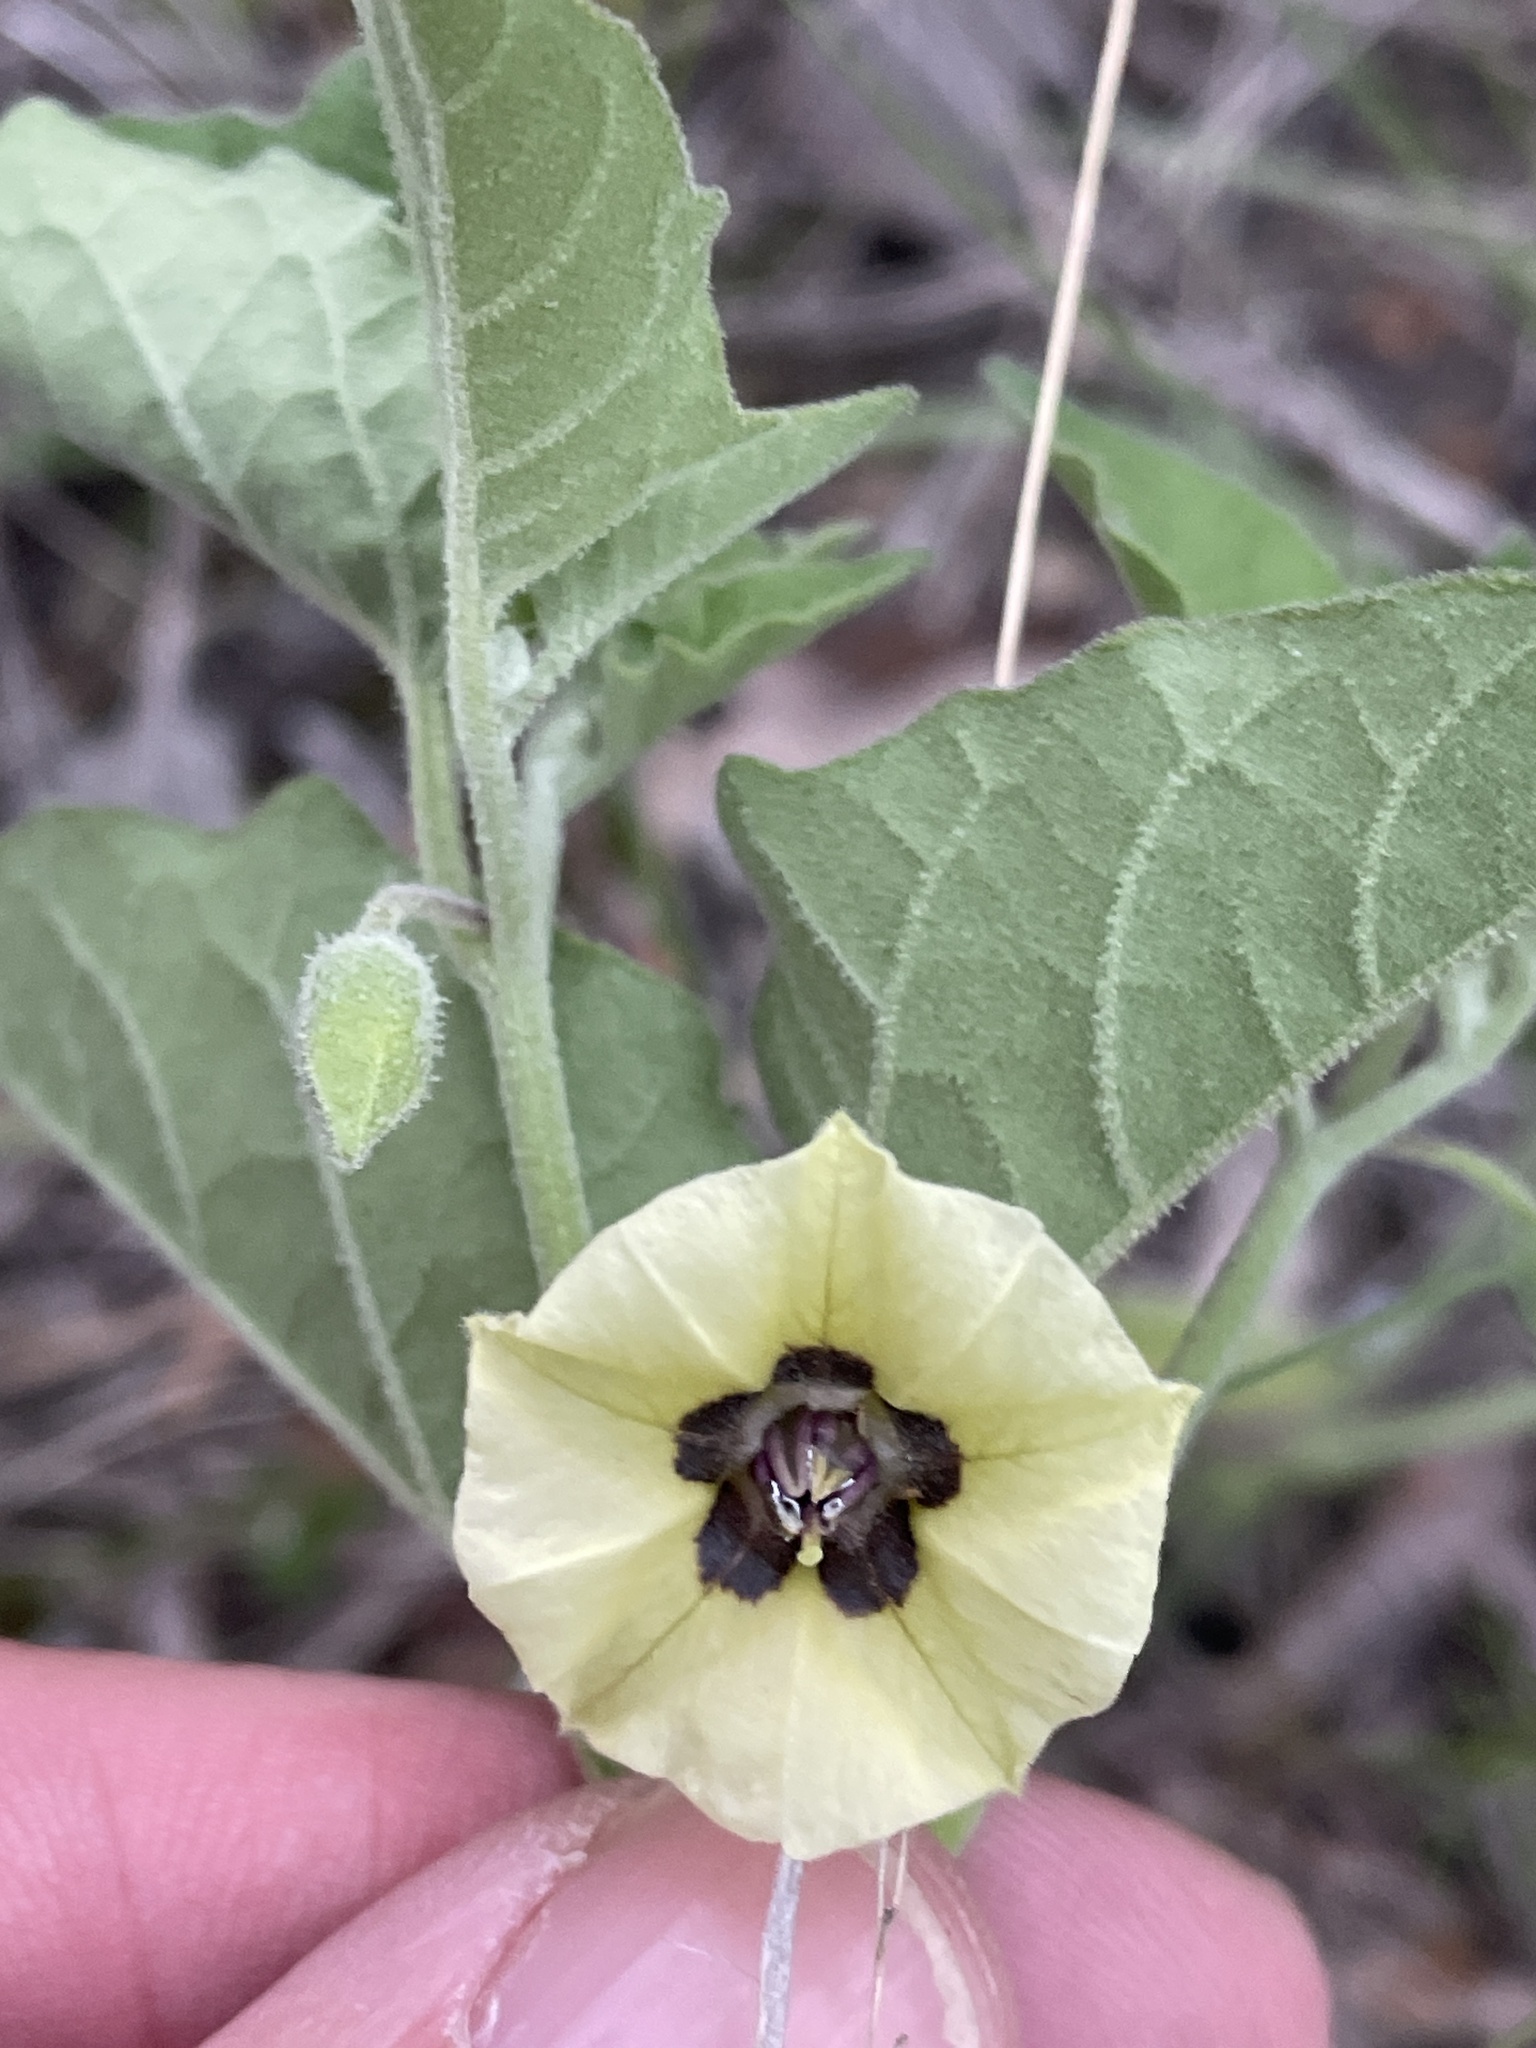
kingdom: Plantae
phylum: Tracheophyta
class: Magnoliopsida
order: Solanales
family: Solanaceae
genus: Physalis
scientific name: Physalis cinerascens
